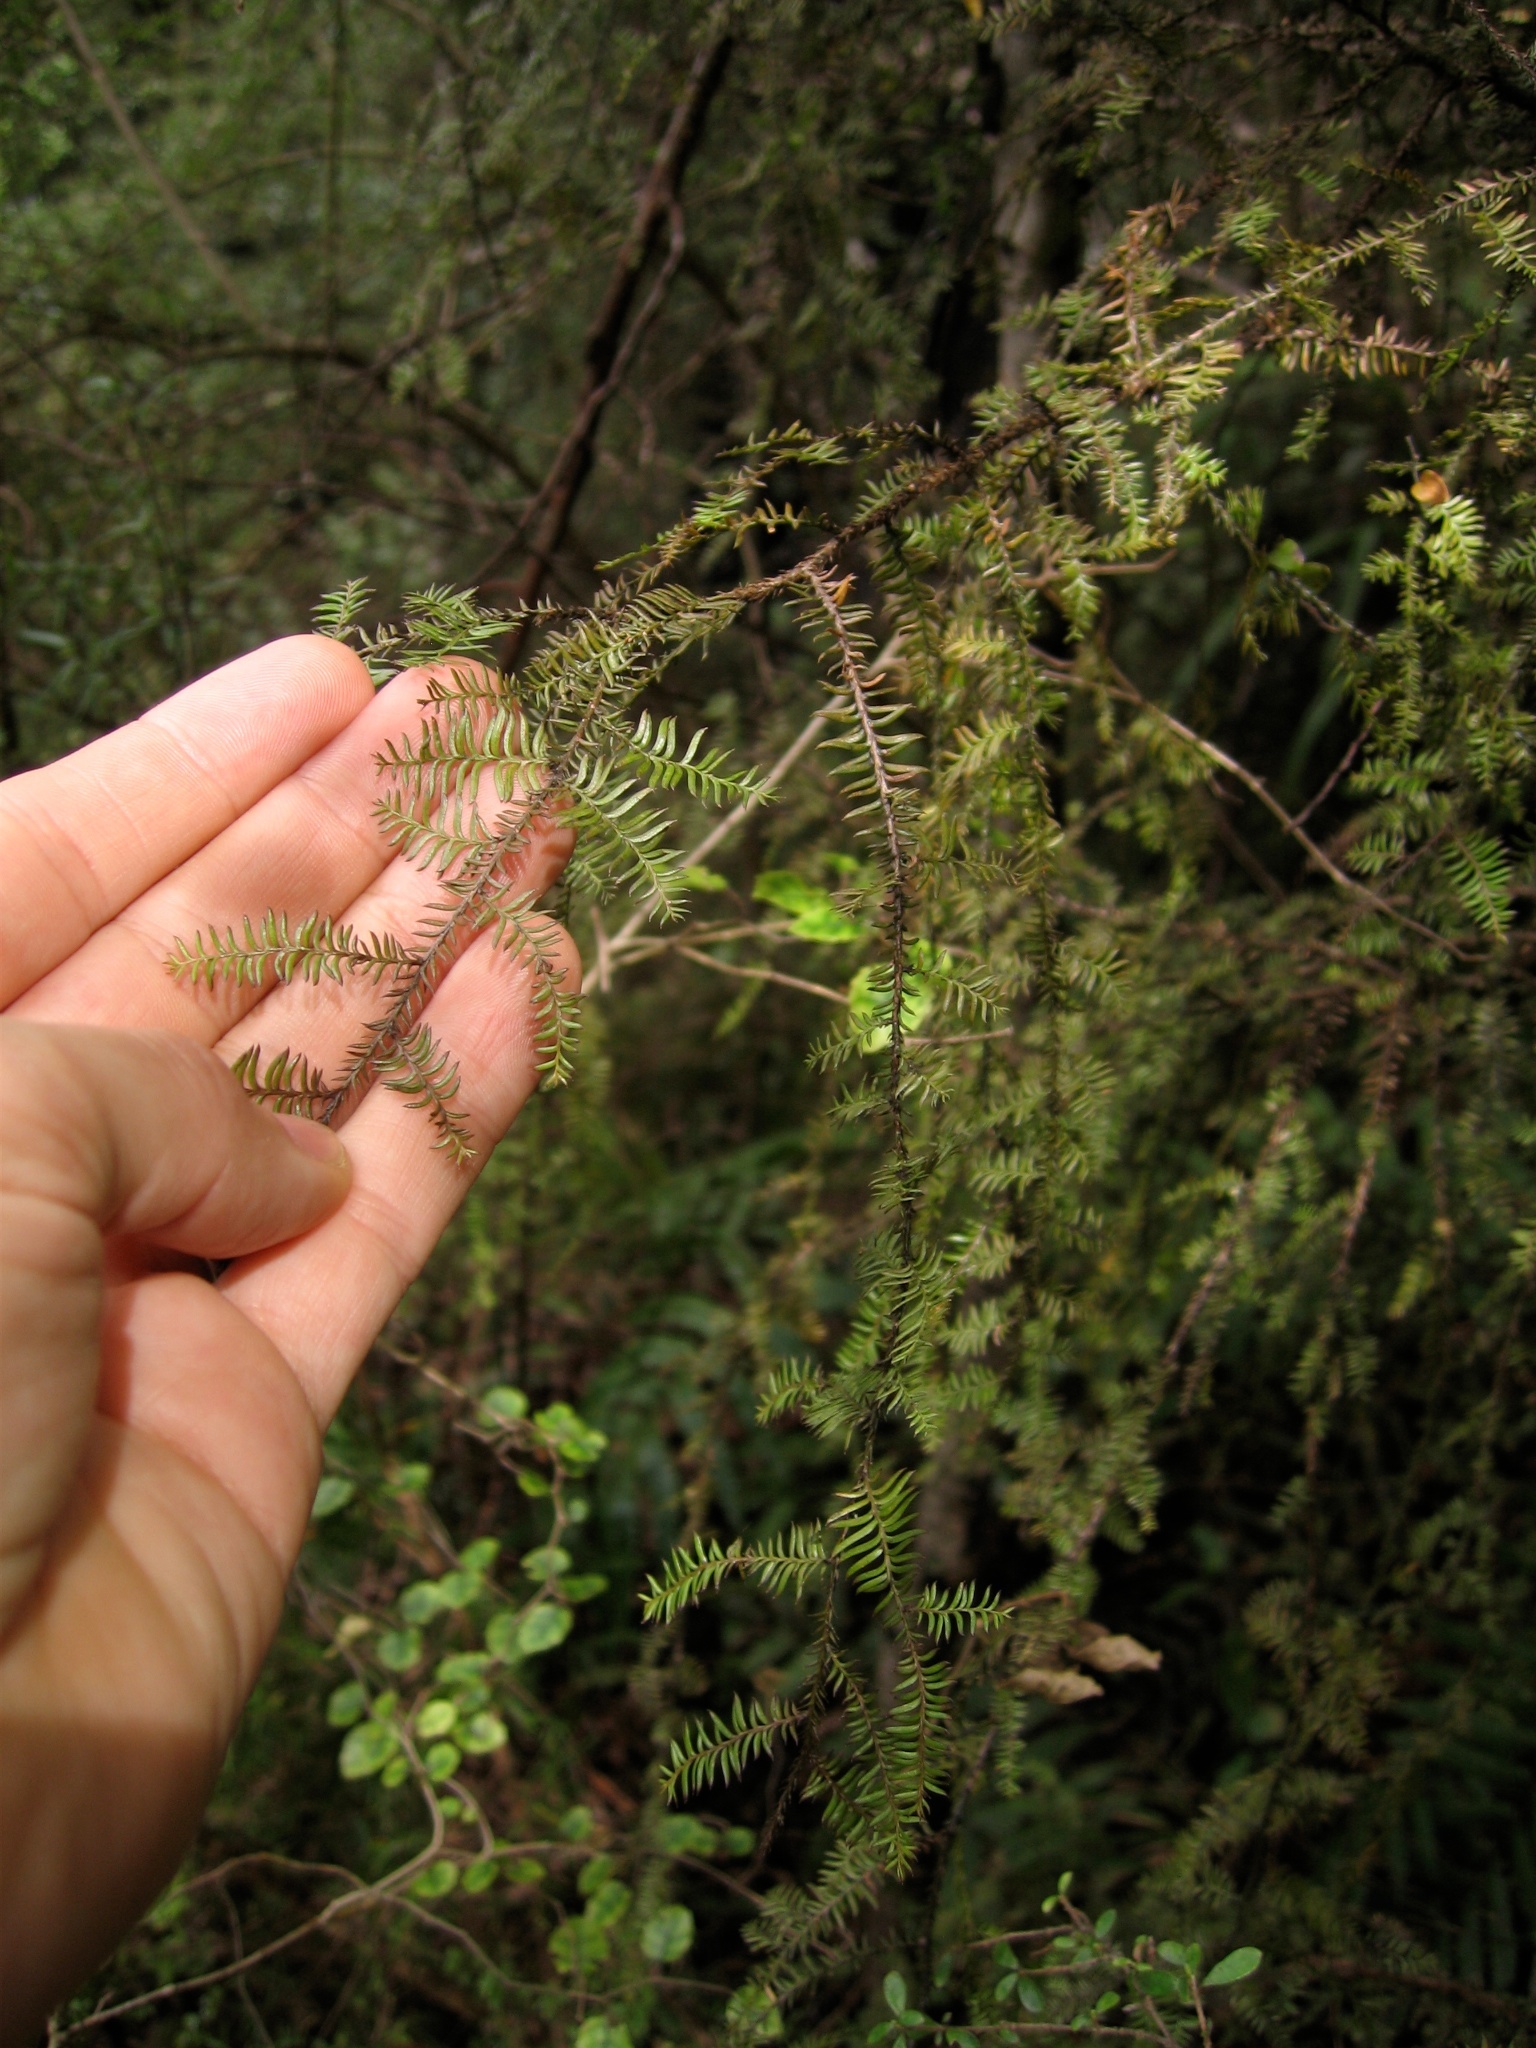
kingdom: Plantae
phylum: Tracheophyta
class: Pinopsida
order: Pinales
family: Podocarpaceae
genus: Dacrycarpus
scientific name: Dacrycarpus dacrydioides
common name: White pine
